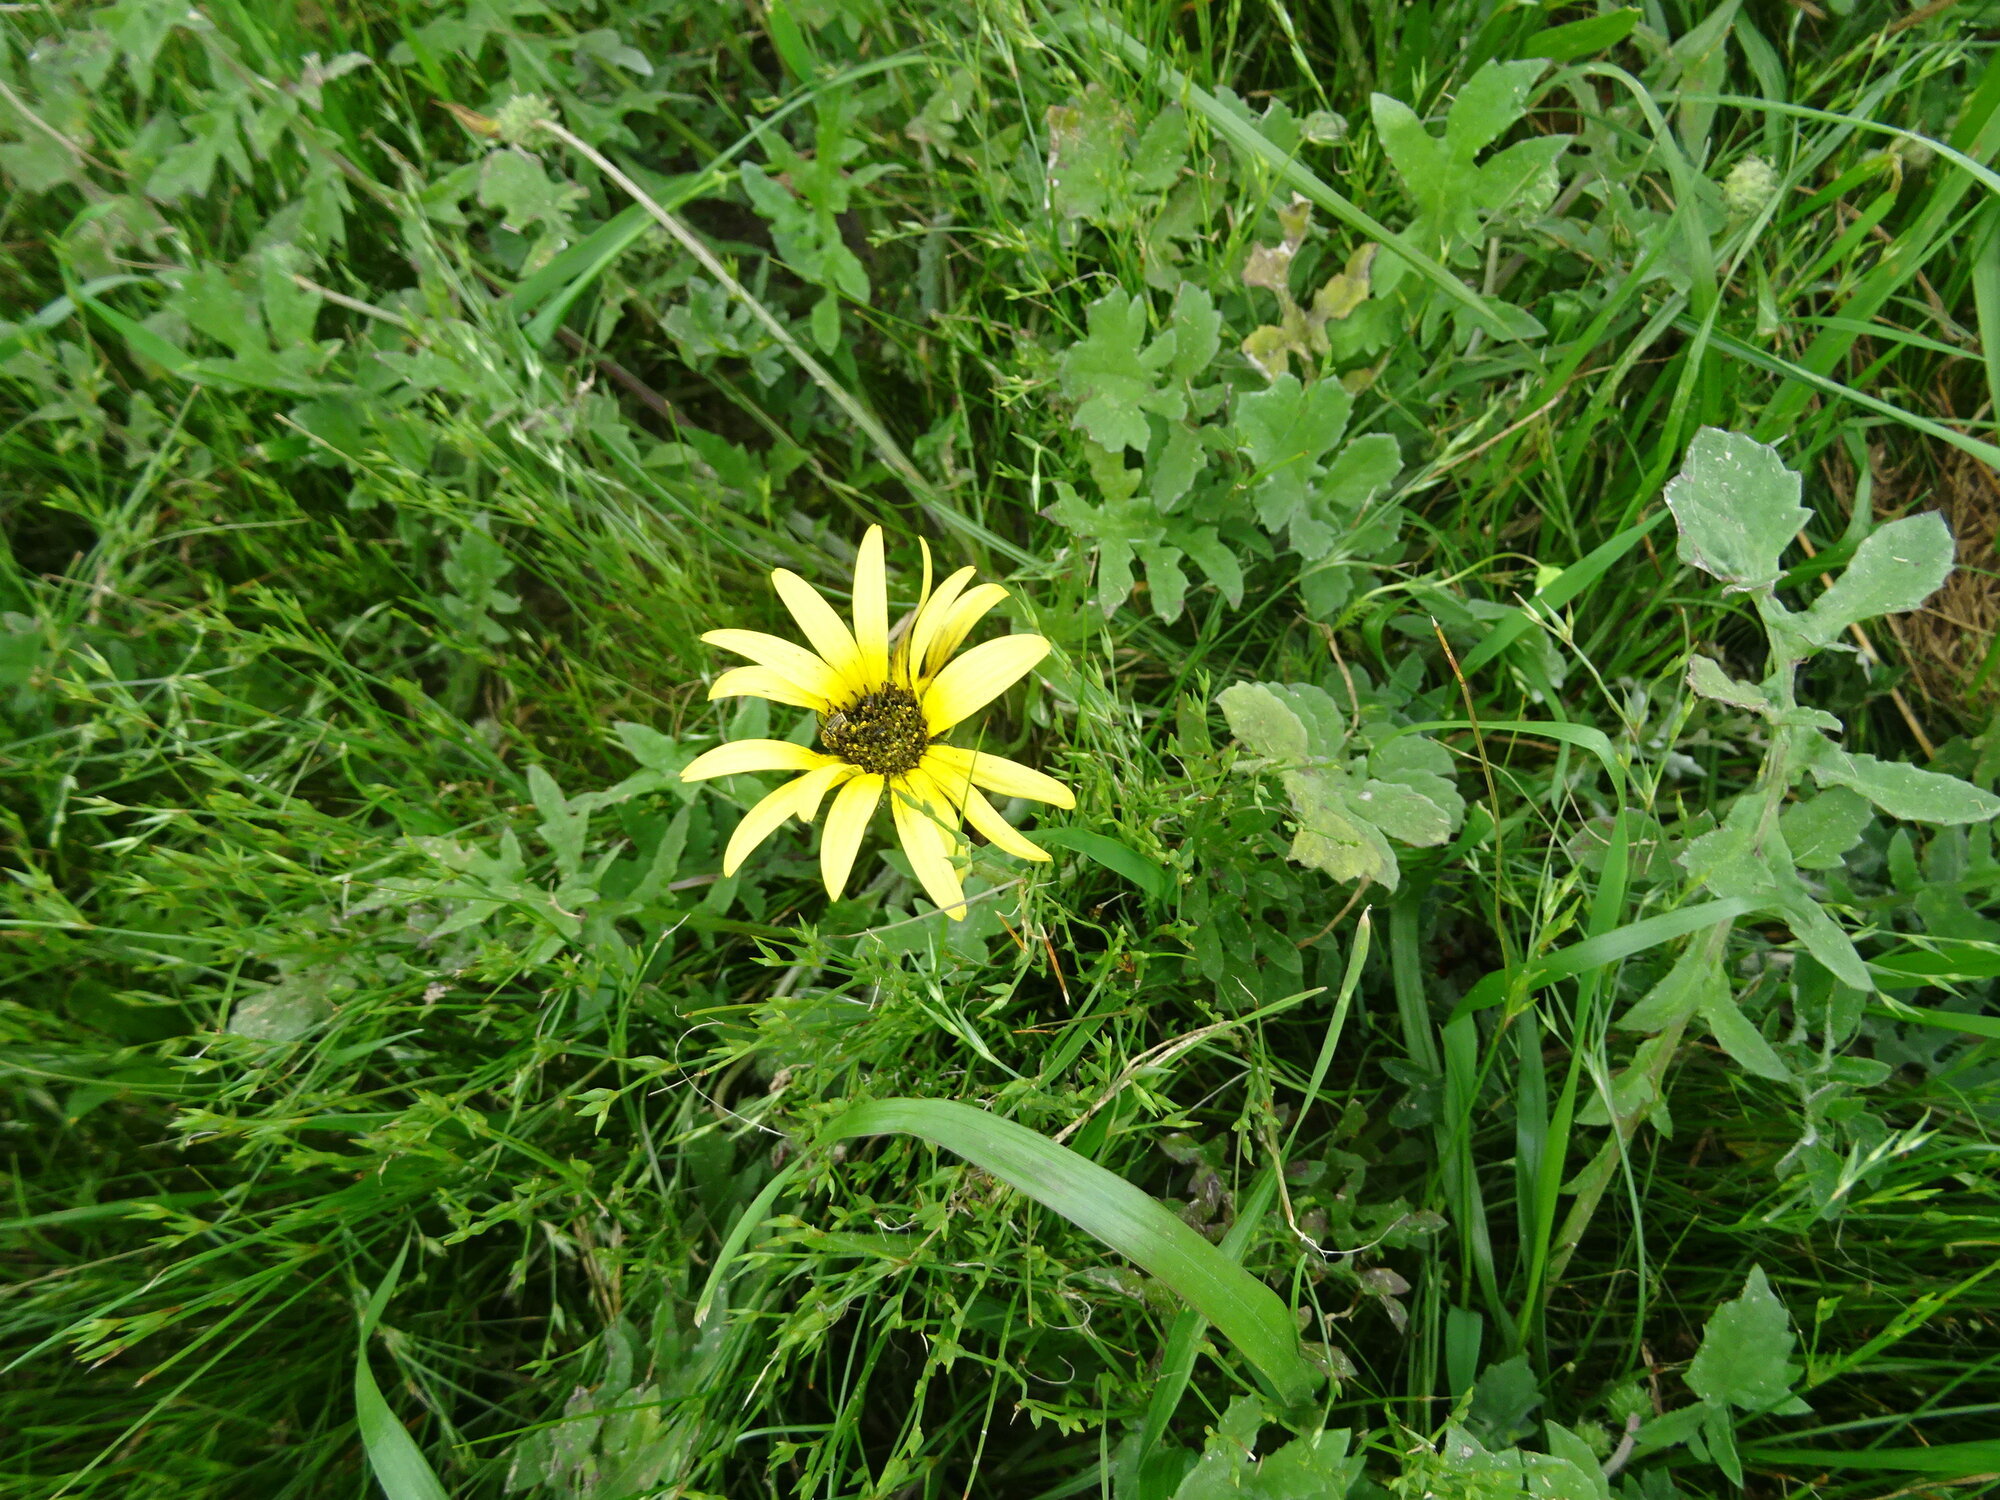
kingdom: Plantae
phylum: Tracheophyta
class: Magnoliopsida
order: Asterales
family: Asteraceae
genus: Arctotheca
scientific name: Arctotheca calendula
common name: Capeweed
